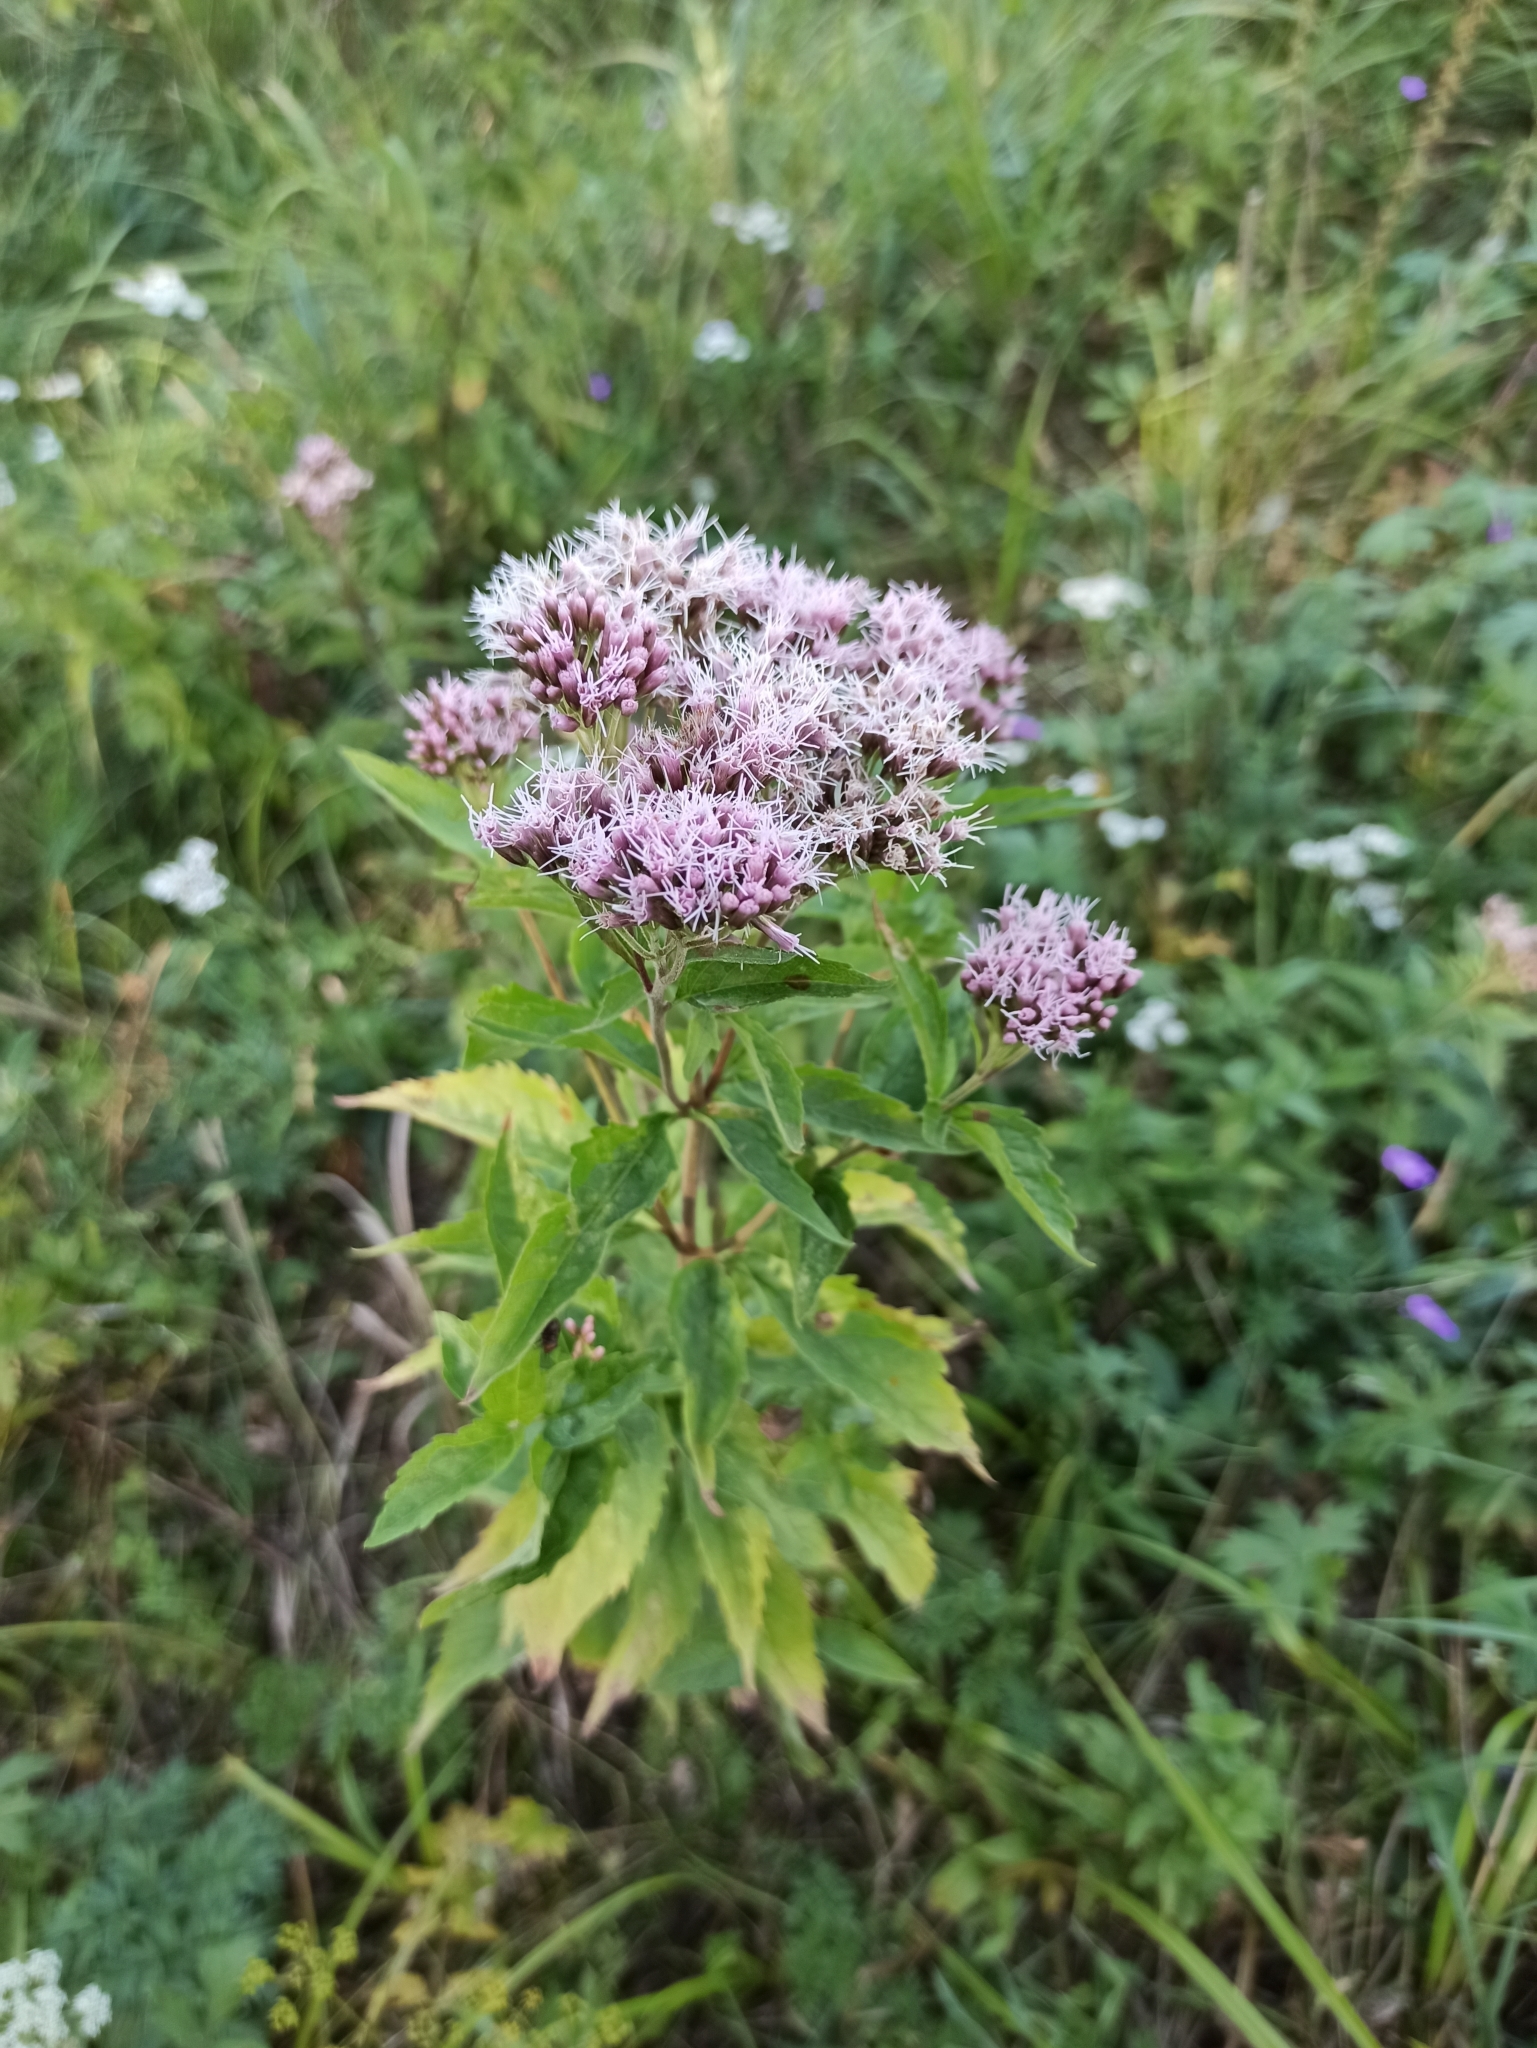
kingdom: Plantae
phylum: Tracheophyta
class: Magnoliopsida
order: Asterales
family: Asteraceae
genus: Eupatorium
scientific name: Eupatorium cannabinum
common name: Hemp-agrimony
